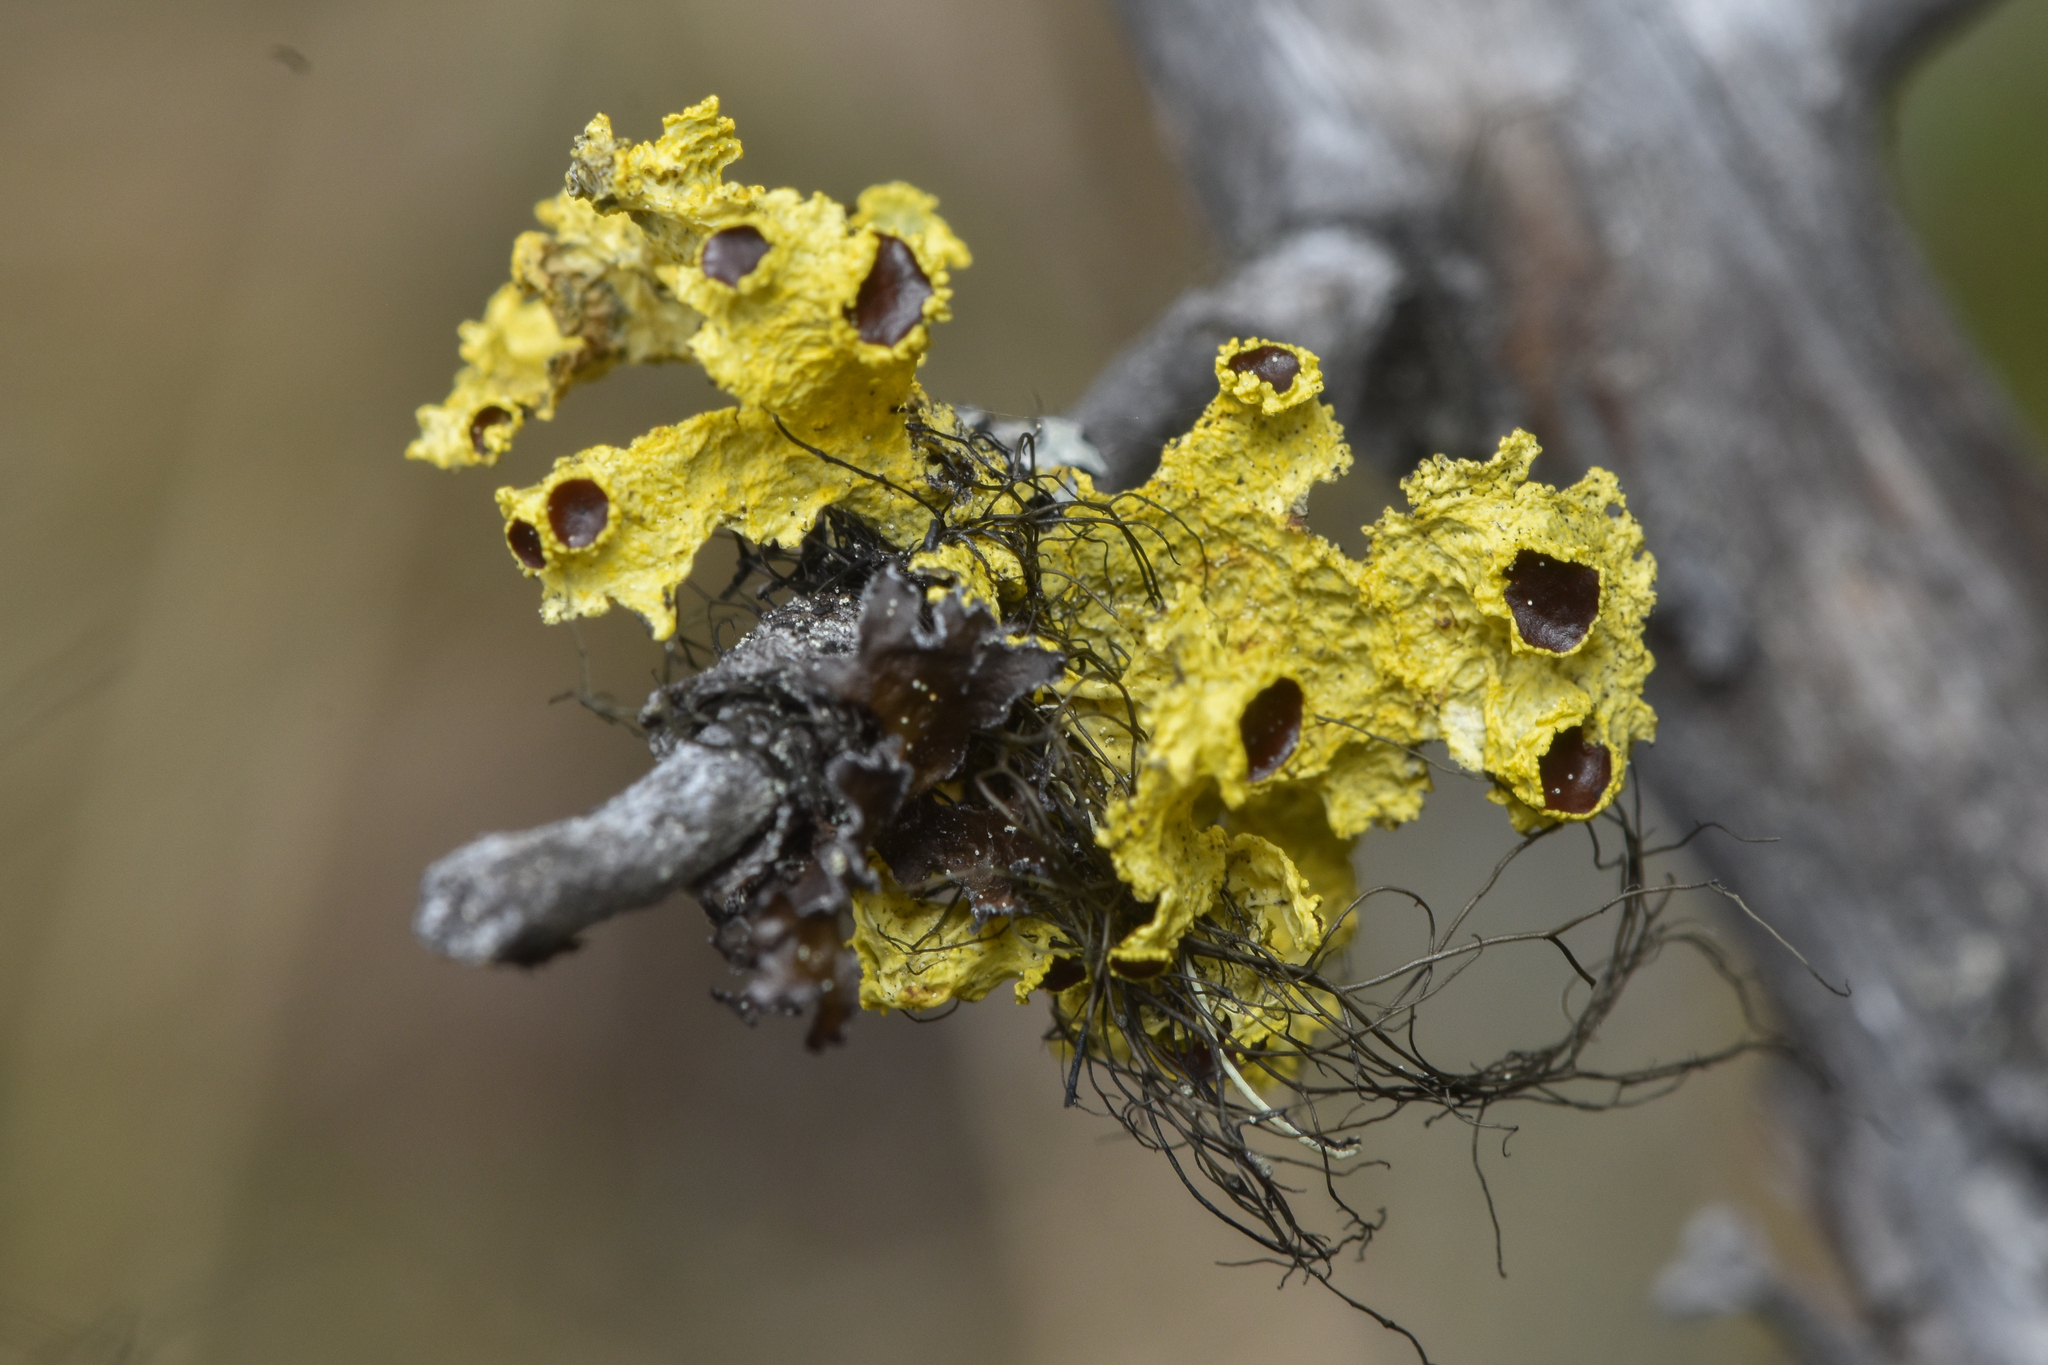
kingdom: Fungi
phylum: Ascomycota
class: Lecanoromycetes
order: Lecanorales
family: Parmeliaceae
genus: Vulpicida
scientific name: Vulpicida canadensis
